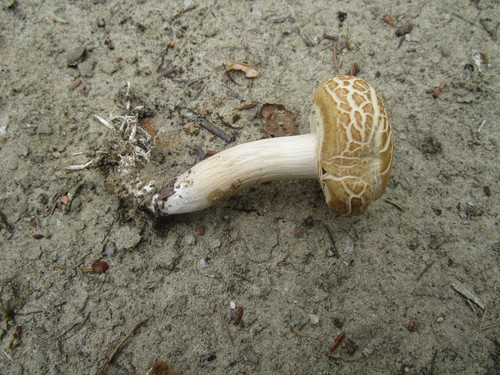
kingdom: Fungi
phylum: Basidiomycota
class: Agaricomycetes
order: Agaricales
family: Strophariaceae
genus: Agrocybe
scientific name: Agrocybe praecox
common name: Spring fieldcap
